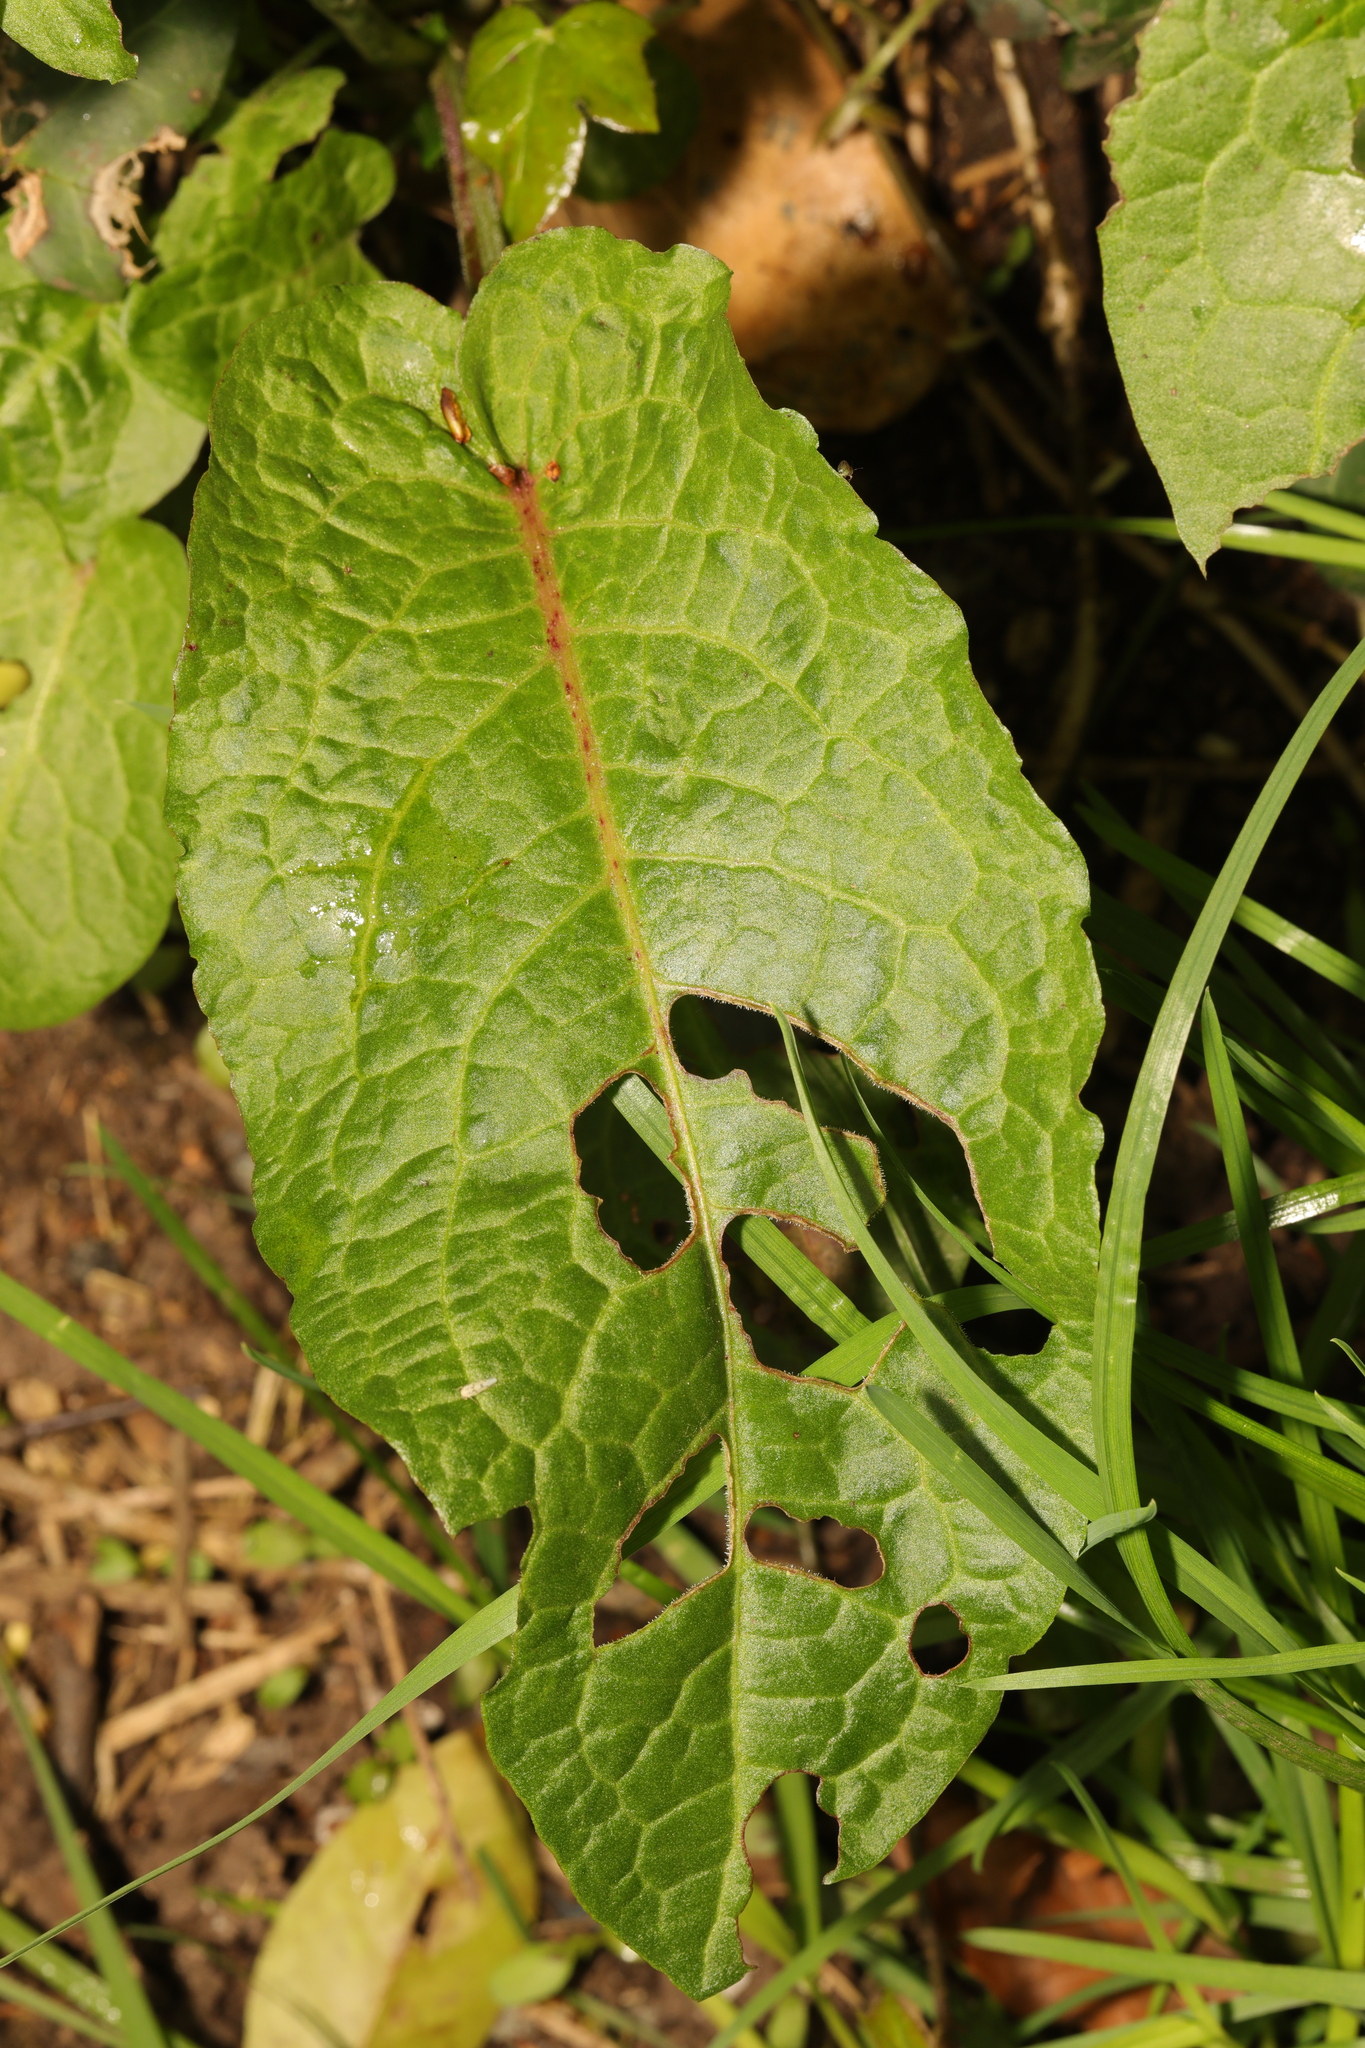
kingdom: Plantae
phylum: Tracheophyta
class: Magnoliopsida
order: Caryophyllales
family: Polygonaceae
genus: Rumex
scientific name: Rumex obtusifolius
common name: Bitter dock
